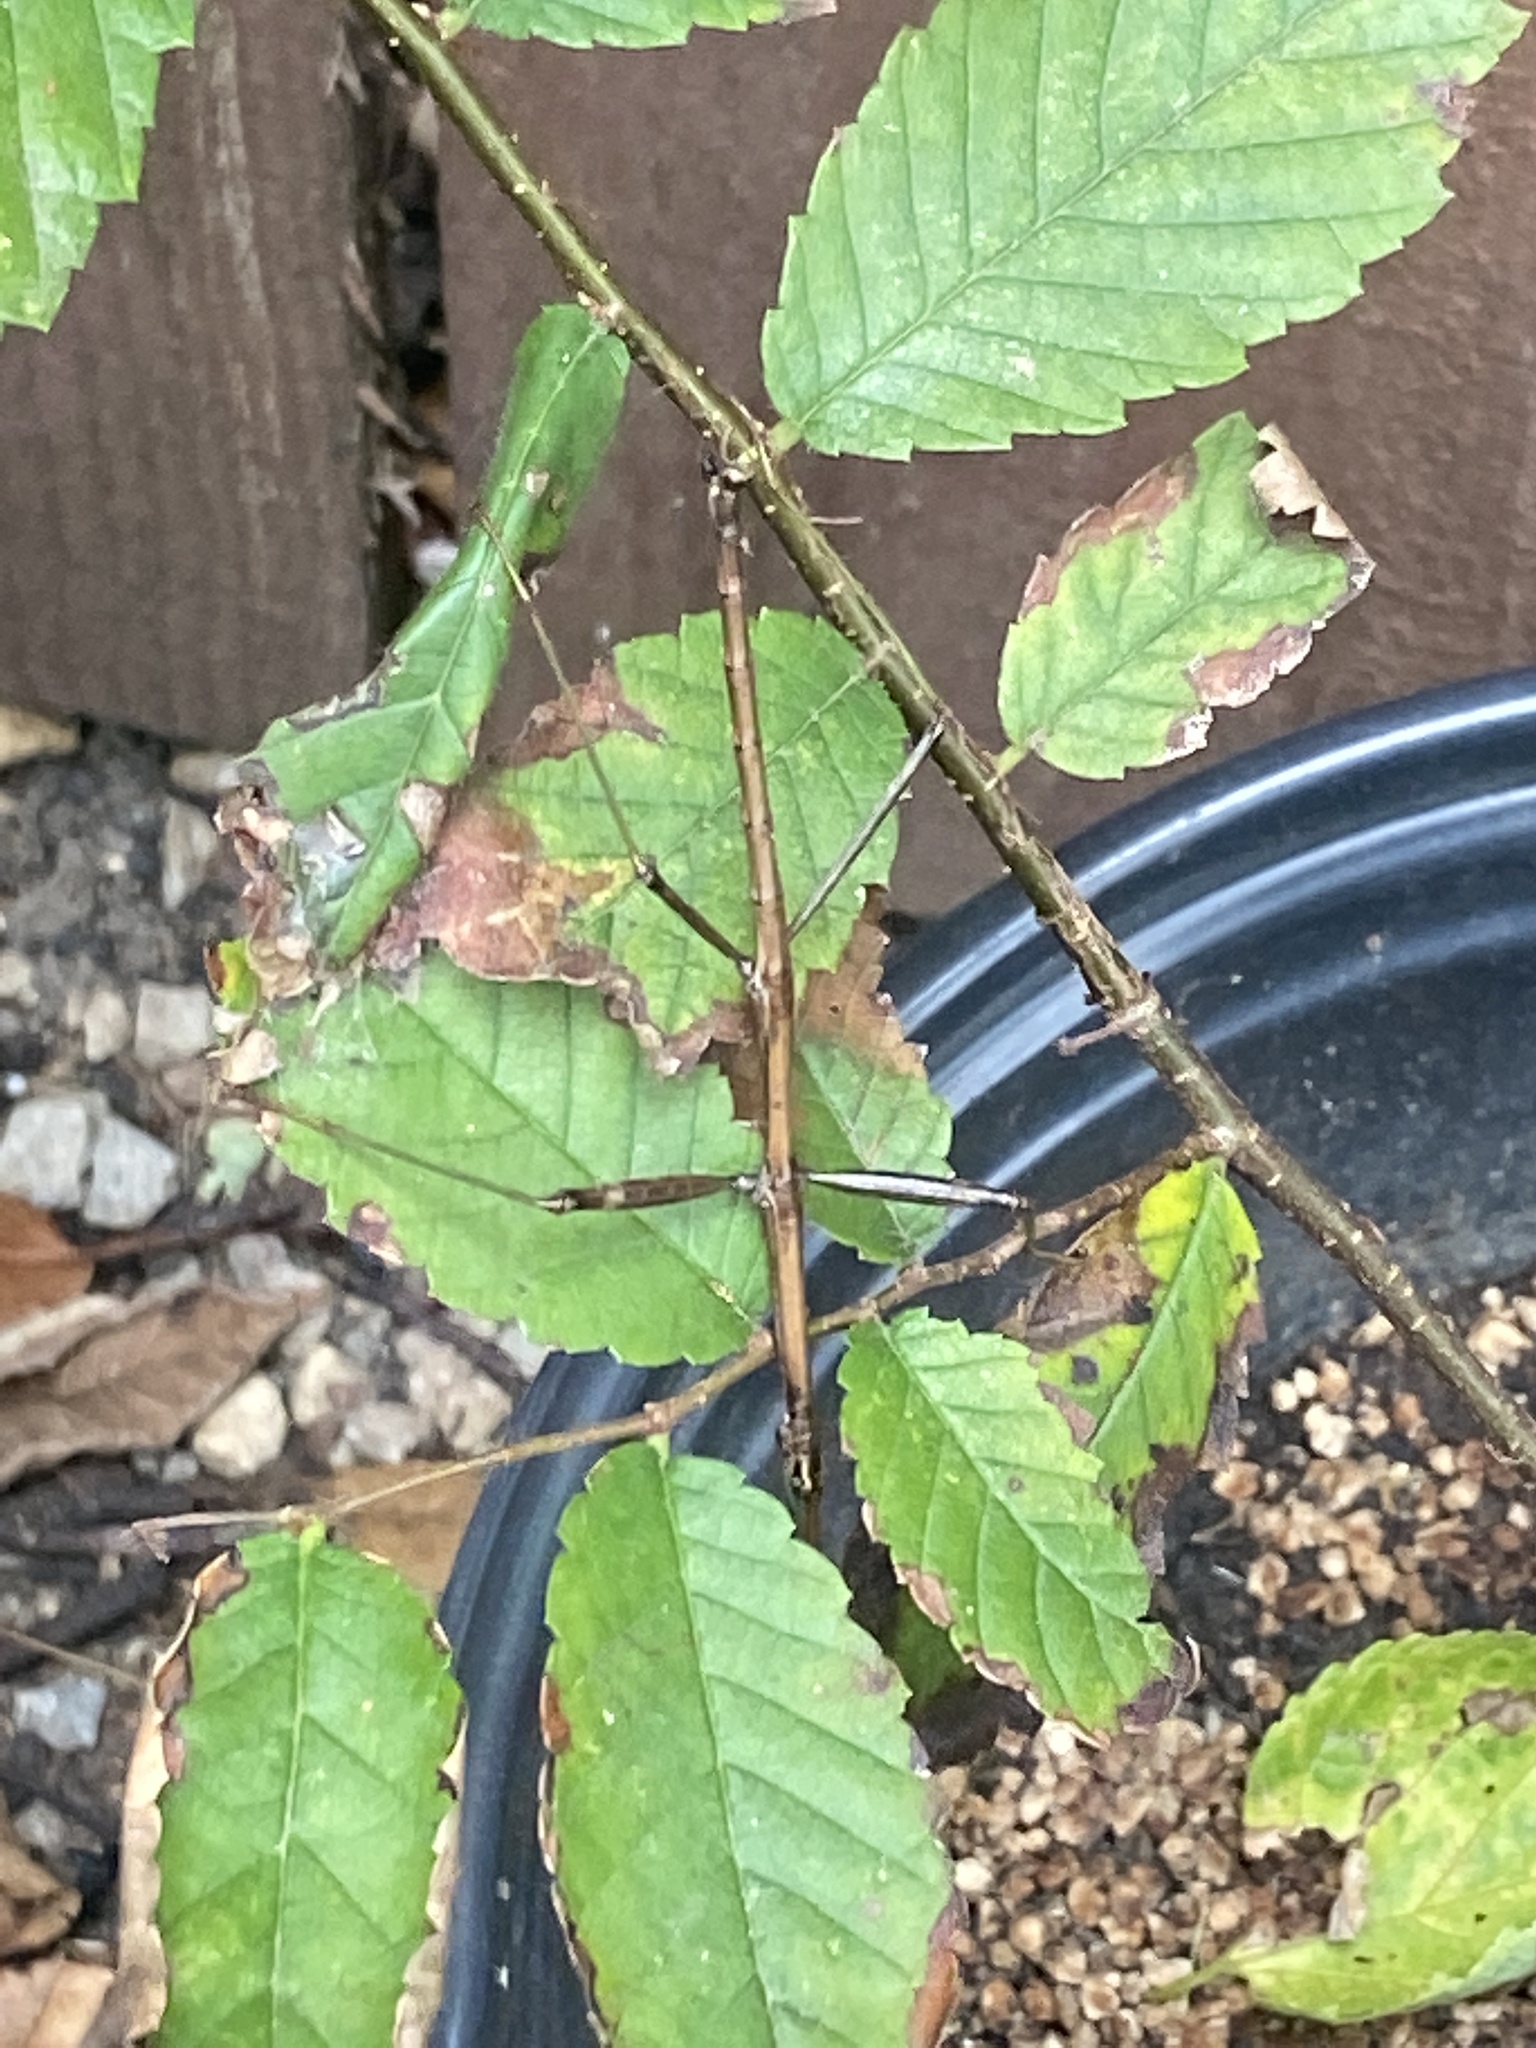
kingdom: Animalia
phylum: Arthropoda
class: Insecta
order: Phasmida
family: Diapheromeridae
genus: Diapheromera
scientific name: Diapheromera femorata
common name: Common american walkingstick
